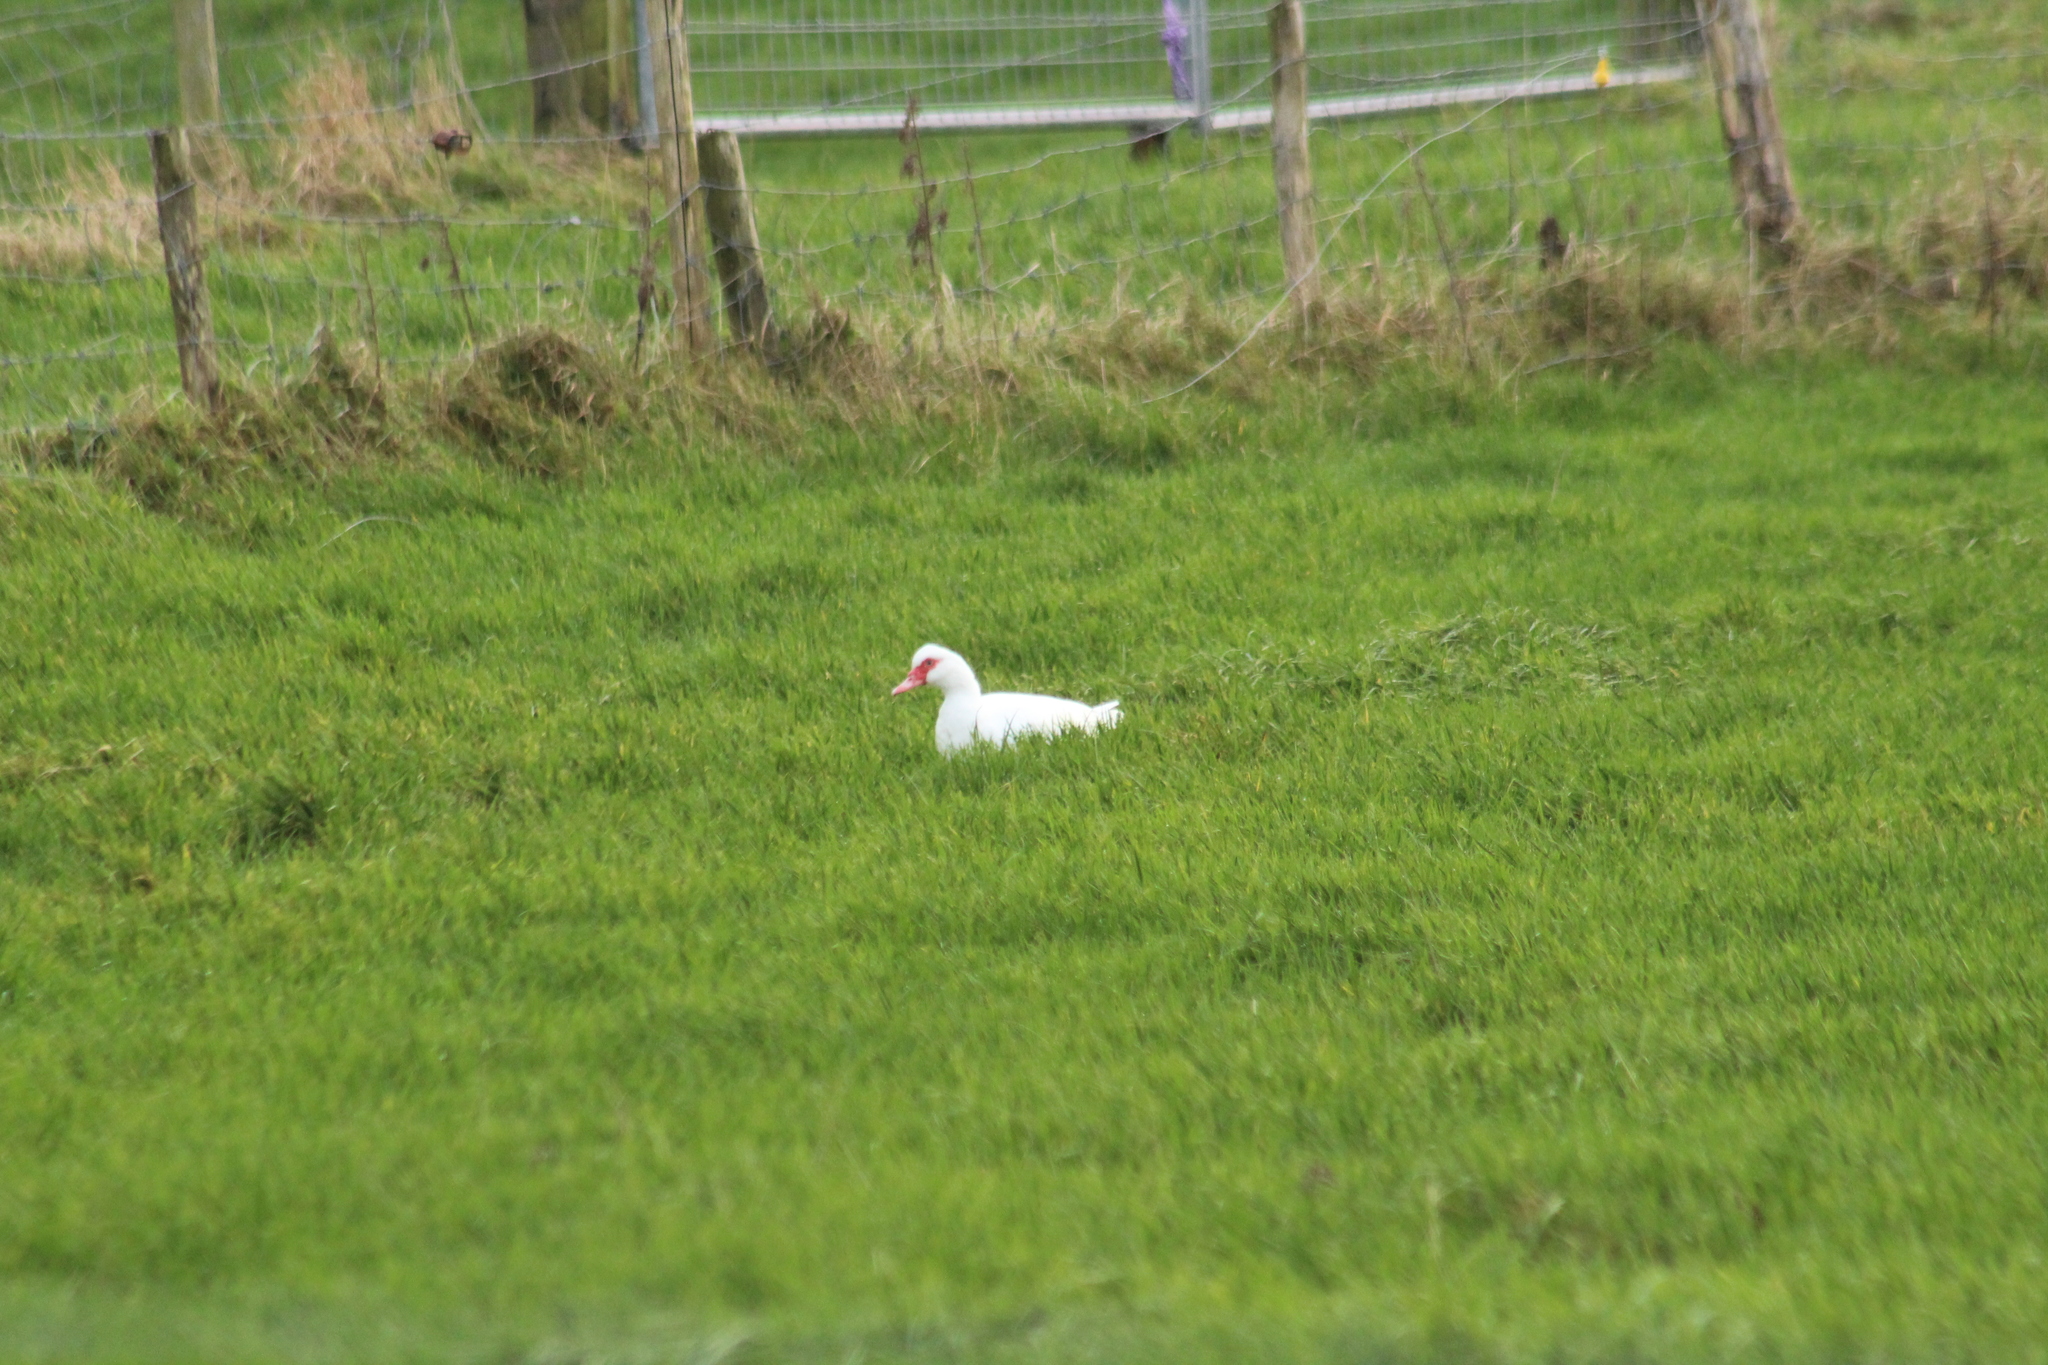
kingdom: Animalia
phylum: Chordata
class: Aves
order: Anseriformes
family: Anatidae
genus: Cairina
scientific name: Cairina moschata
